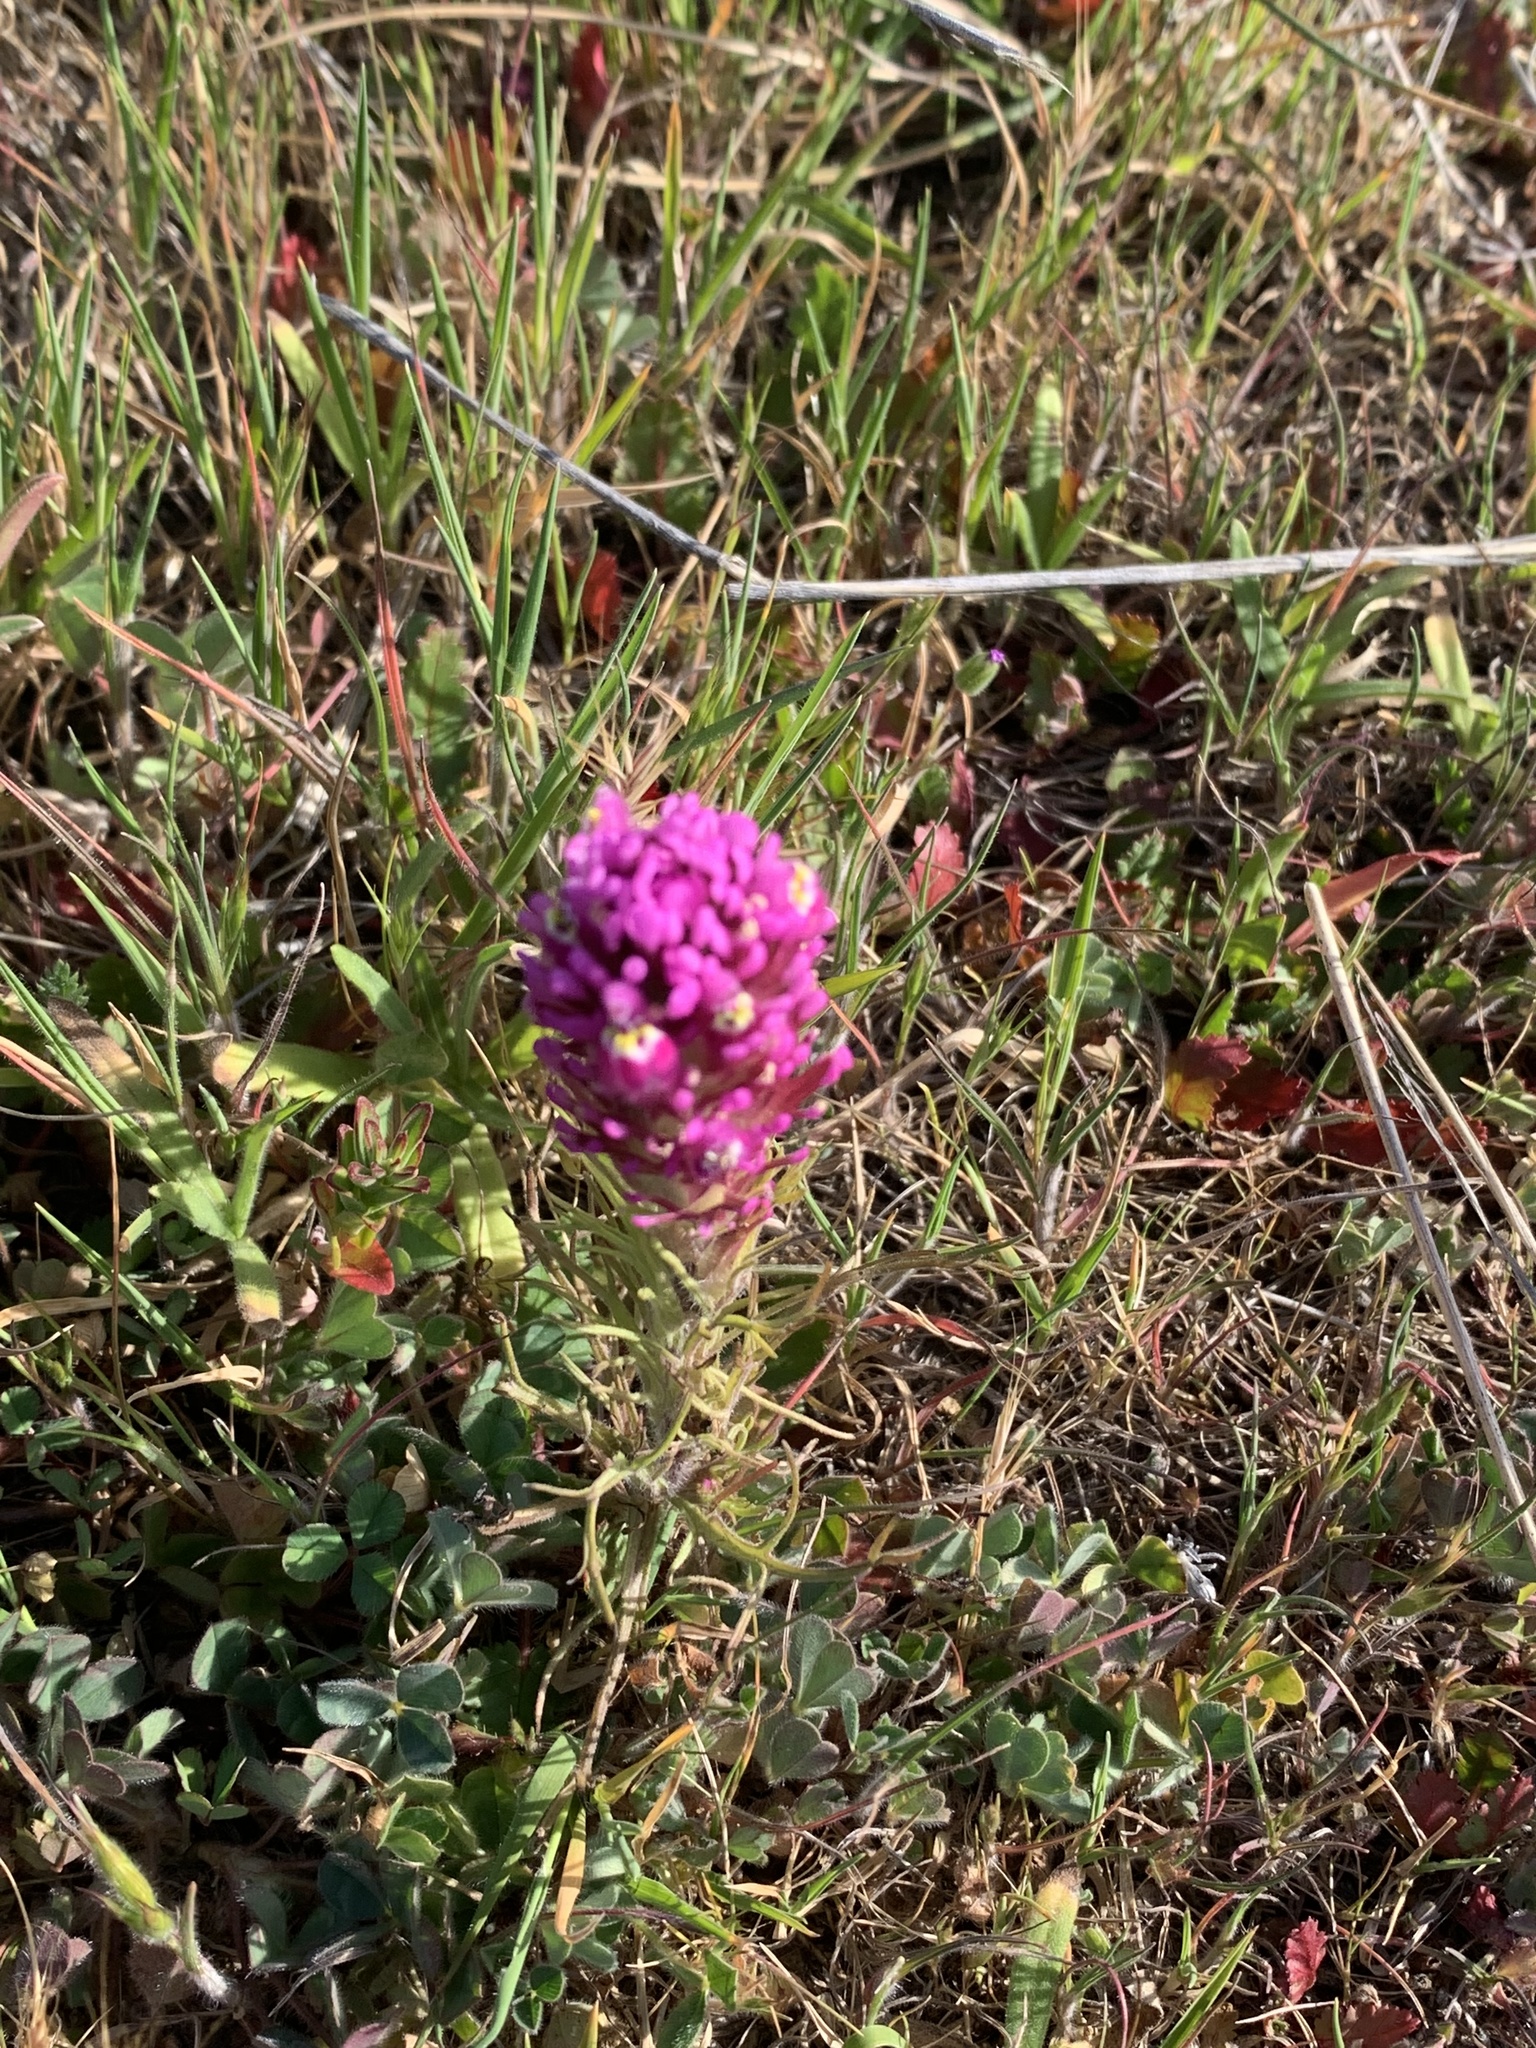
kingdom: Plantae
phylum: Tracheophyta
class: Magnoliopsida
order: Lamiales
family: Orobanchaceae
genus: Castilleja
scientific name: Castilleja exserta
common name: Purple owl-clover
